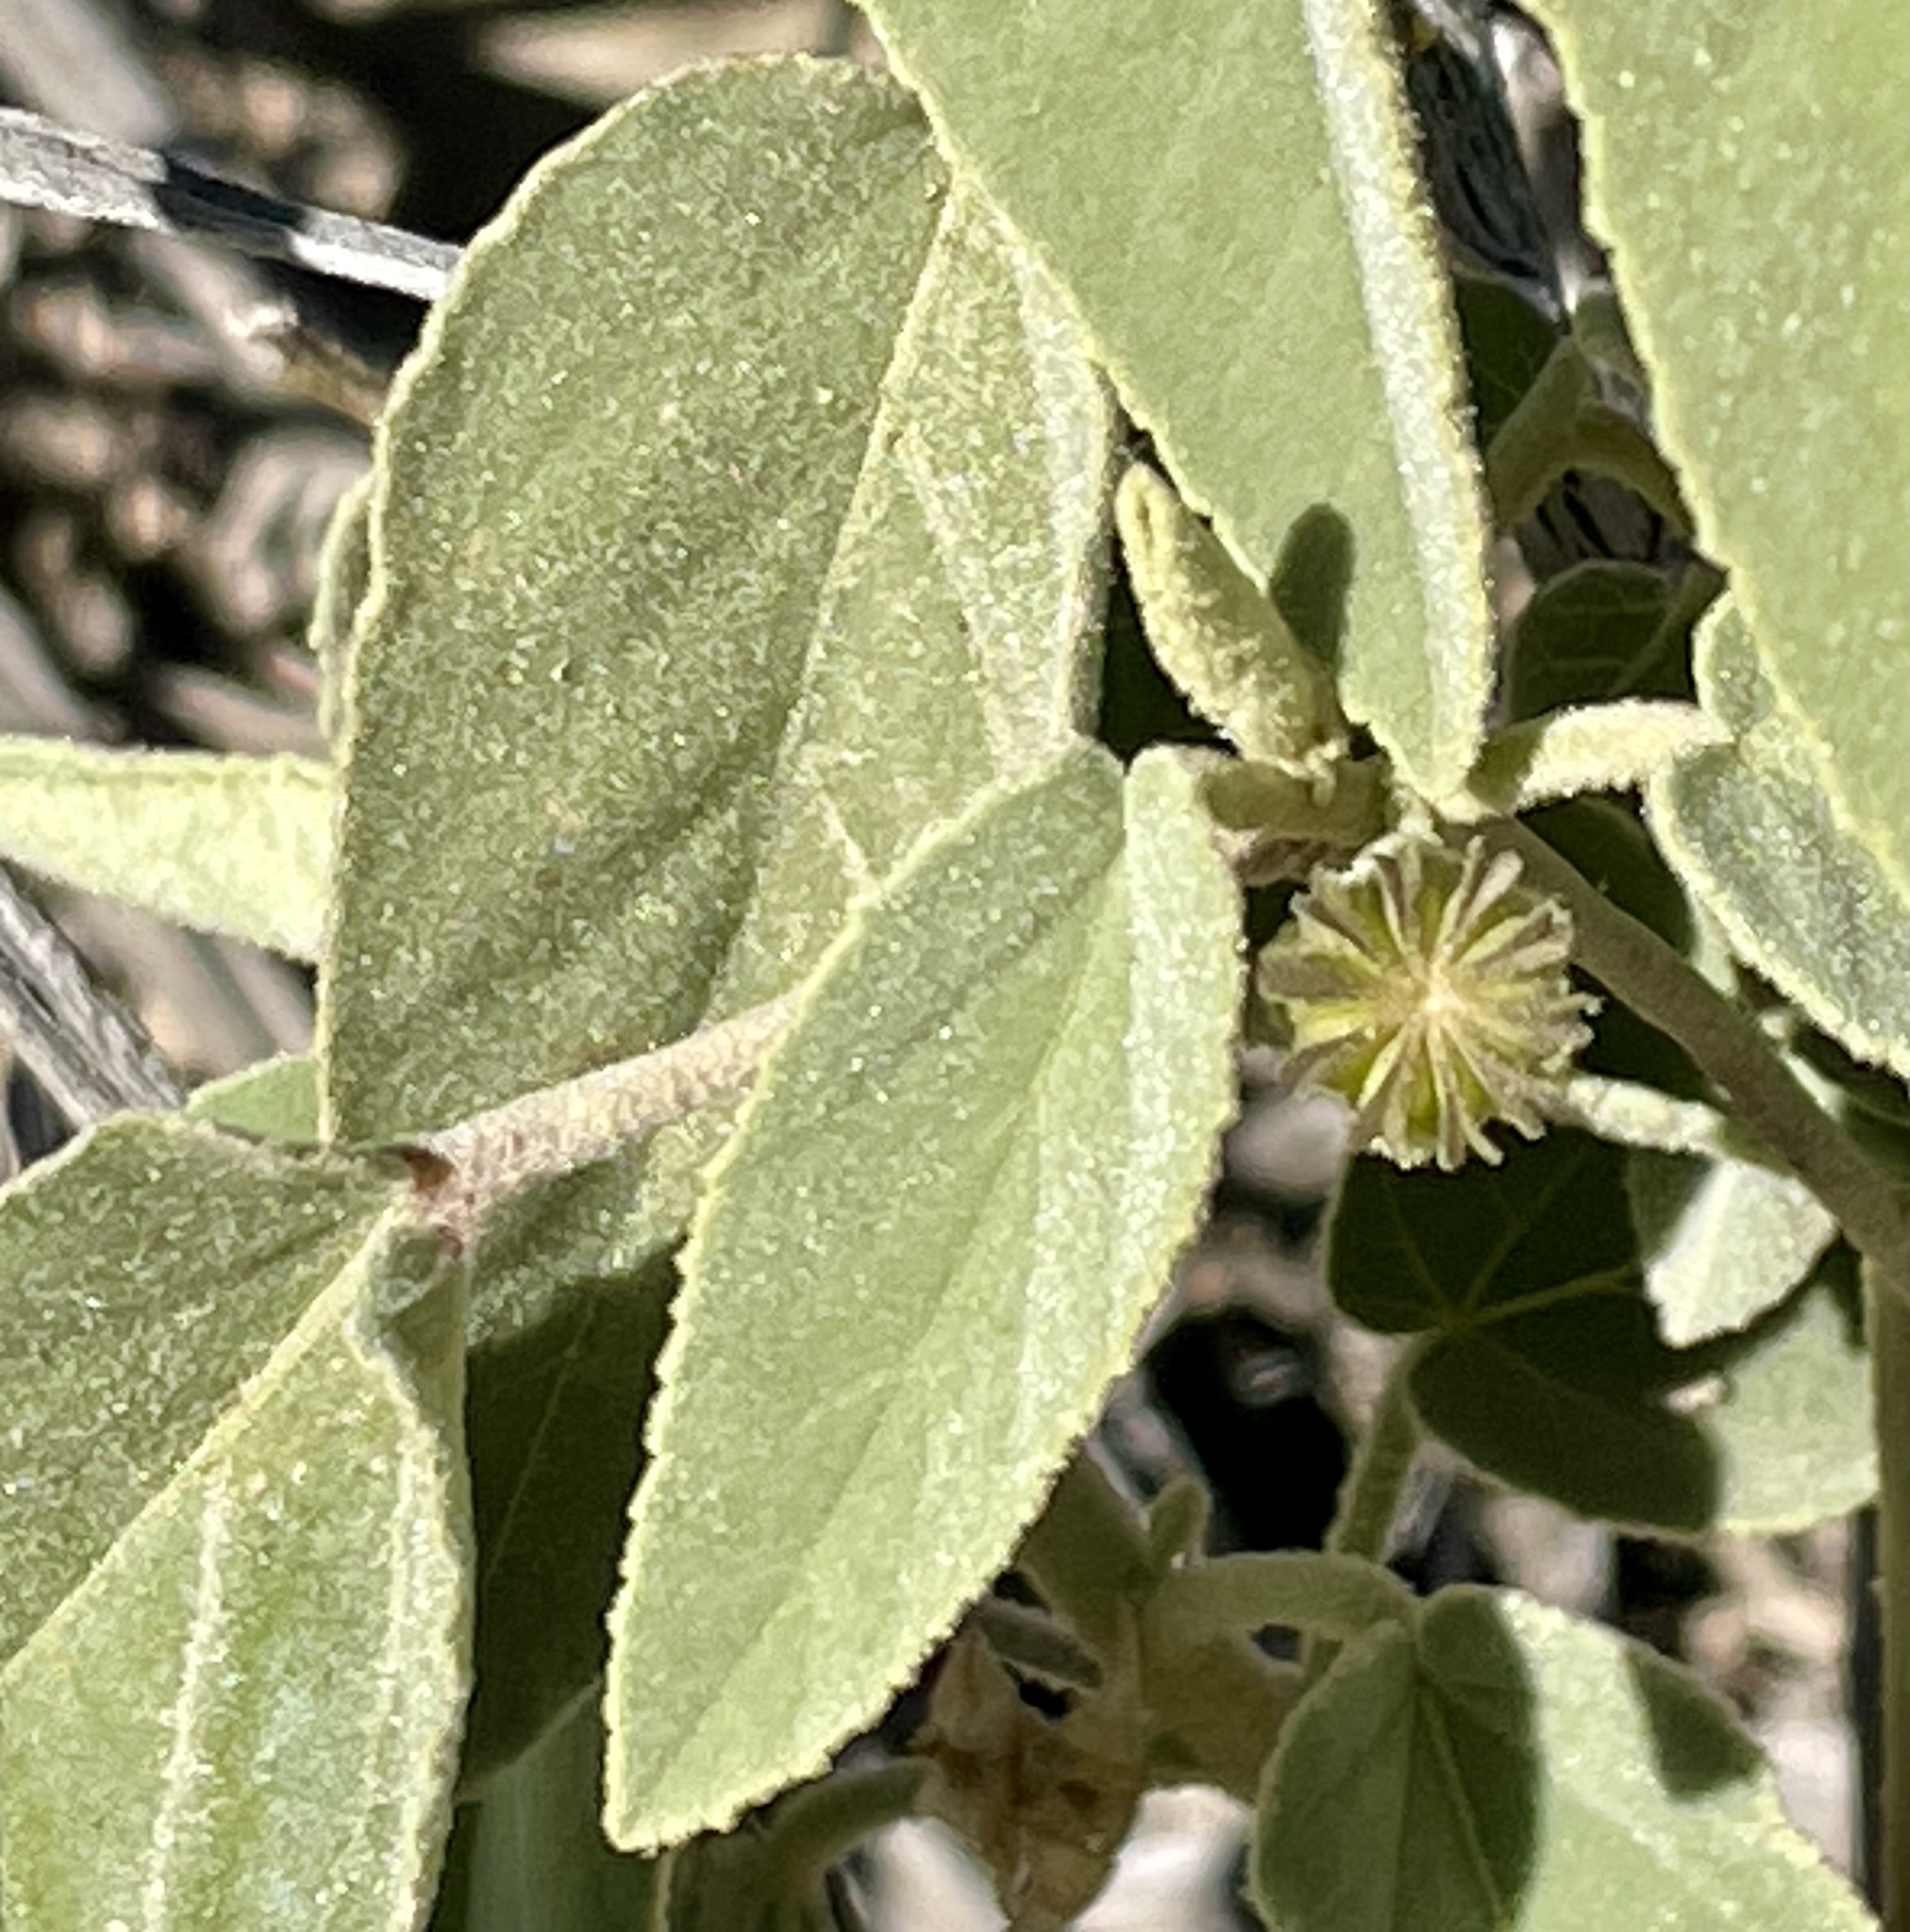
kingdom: Plantae
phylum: Tracheophyta
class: Magnoliopsida
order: Malvales
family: Malvaceae
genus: Horsfordia
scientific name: Horsfordia newberryi
